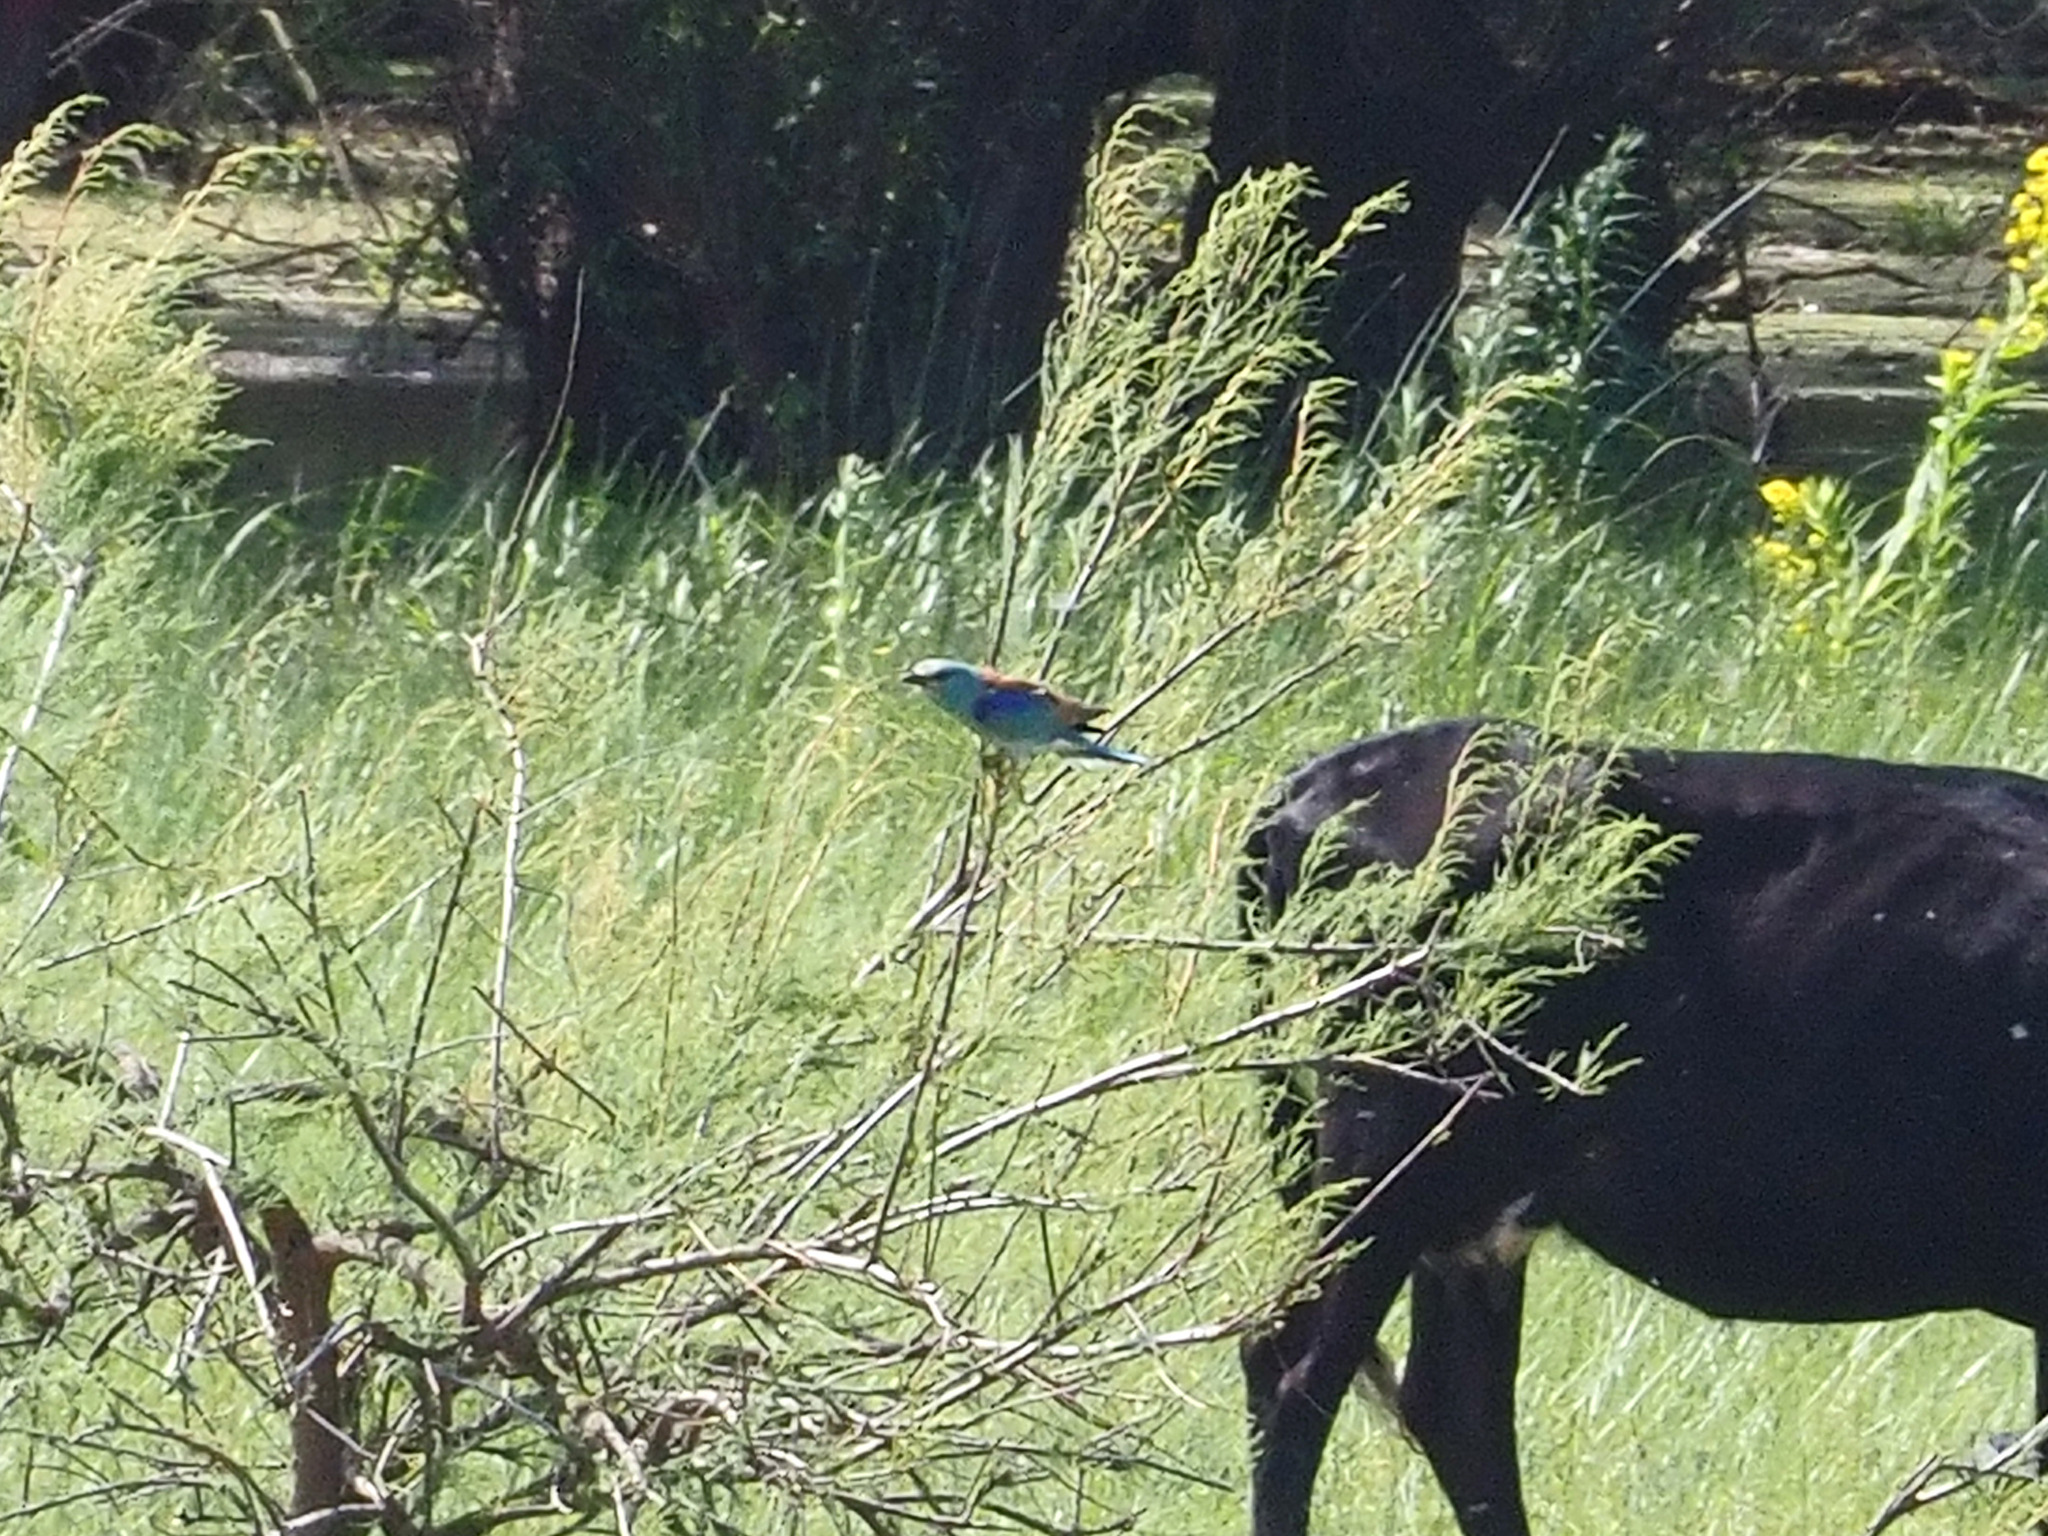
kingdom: Animalia
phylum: Chordata
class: Aves
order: Coraciiformes
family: Coraciidae
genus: Coracias
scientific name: Coracias garrulus
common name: European roller
